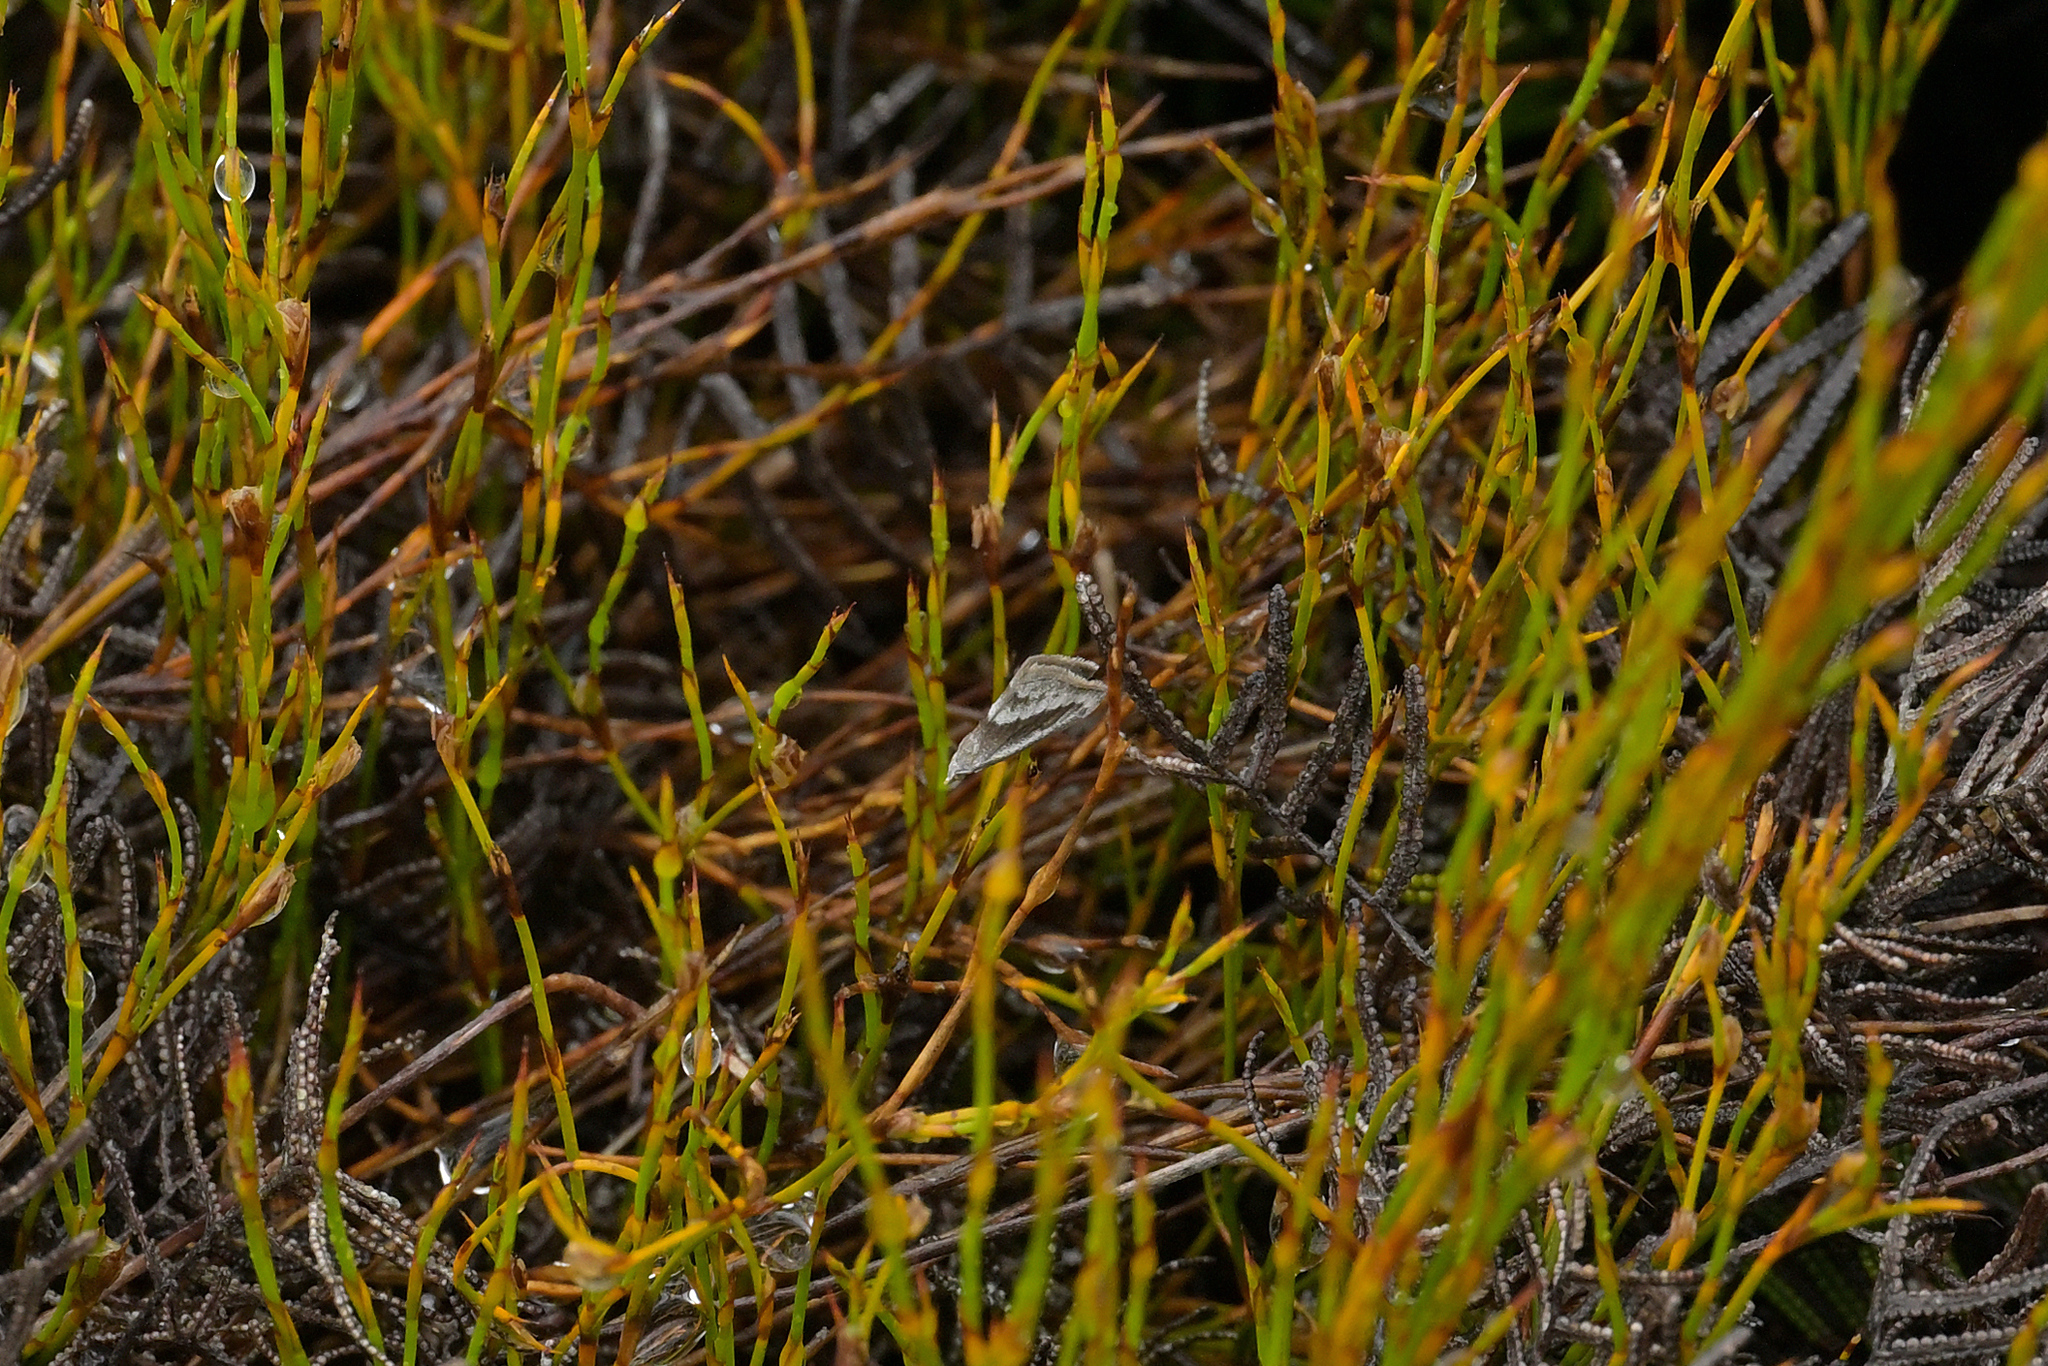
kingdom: Animalia
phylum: Arthropoda
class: Insecta
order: Lepidoptera
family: Geometridae
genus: Adeixis
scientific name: Adeixis griseata
